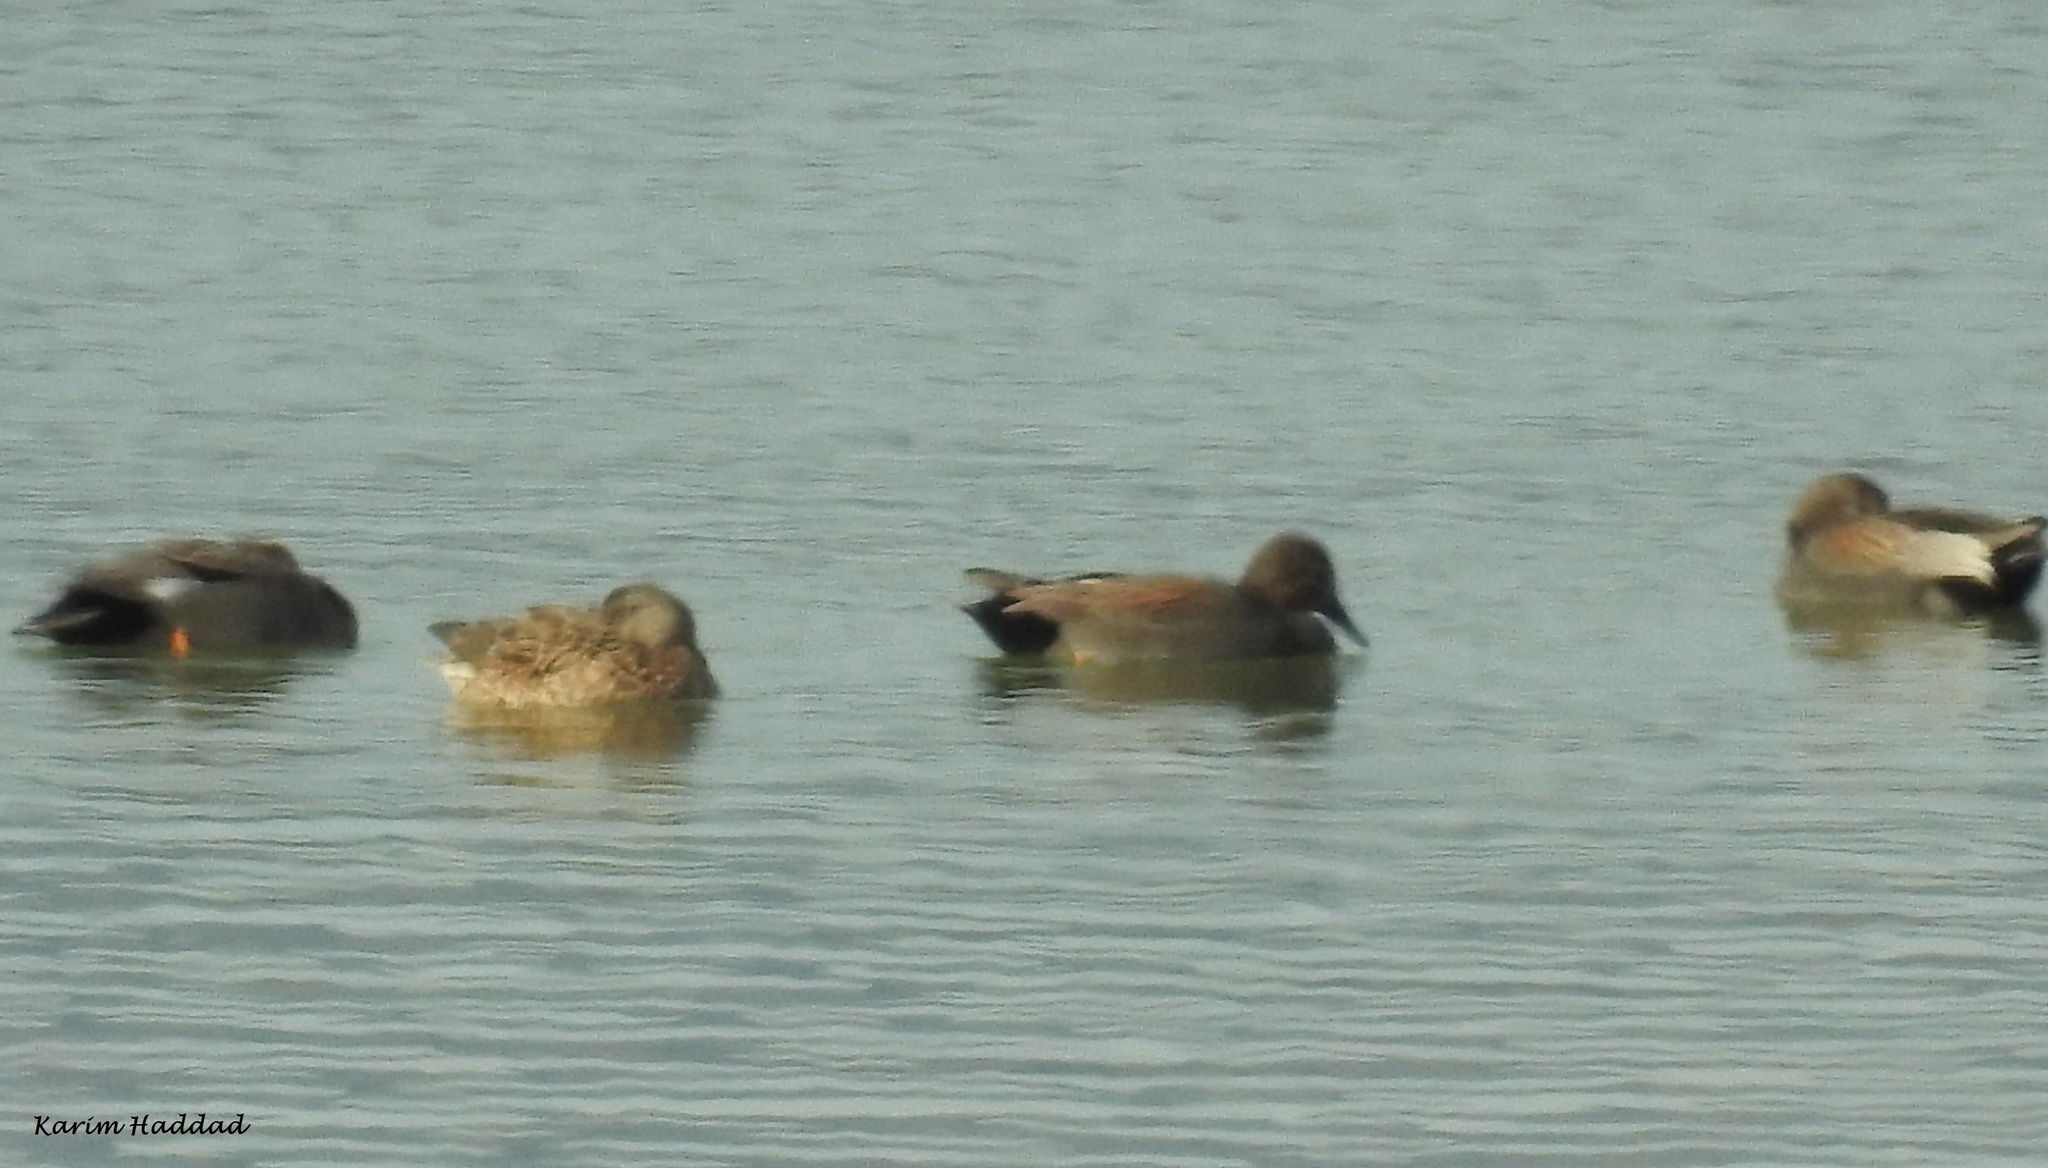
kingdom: Animalia
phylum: Chordata
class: Aves
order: Anseriformes
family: Anatidae
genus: Mareca
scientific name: Mareca strepera
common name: Gadwall
